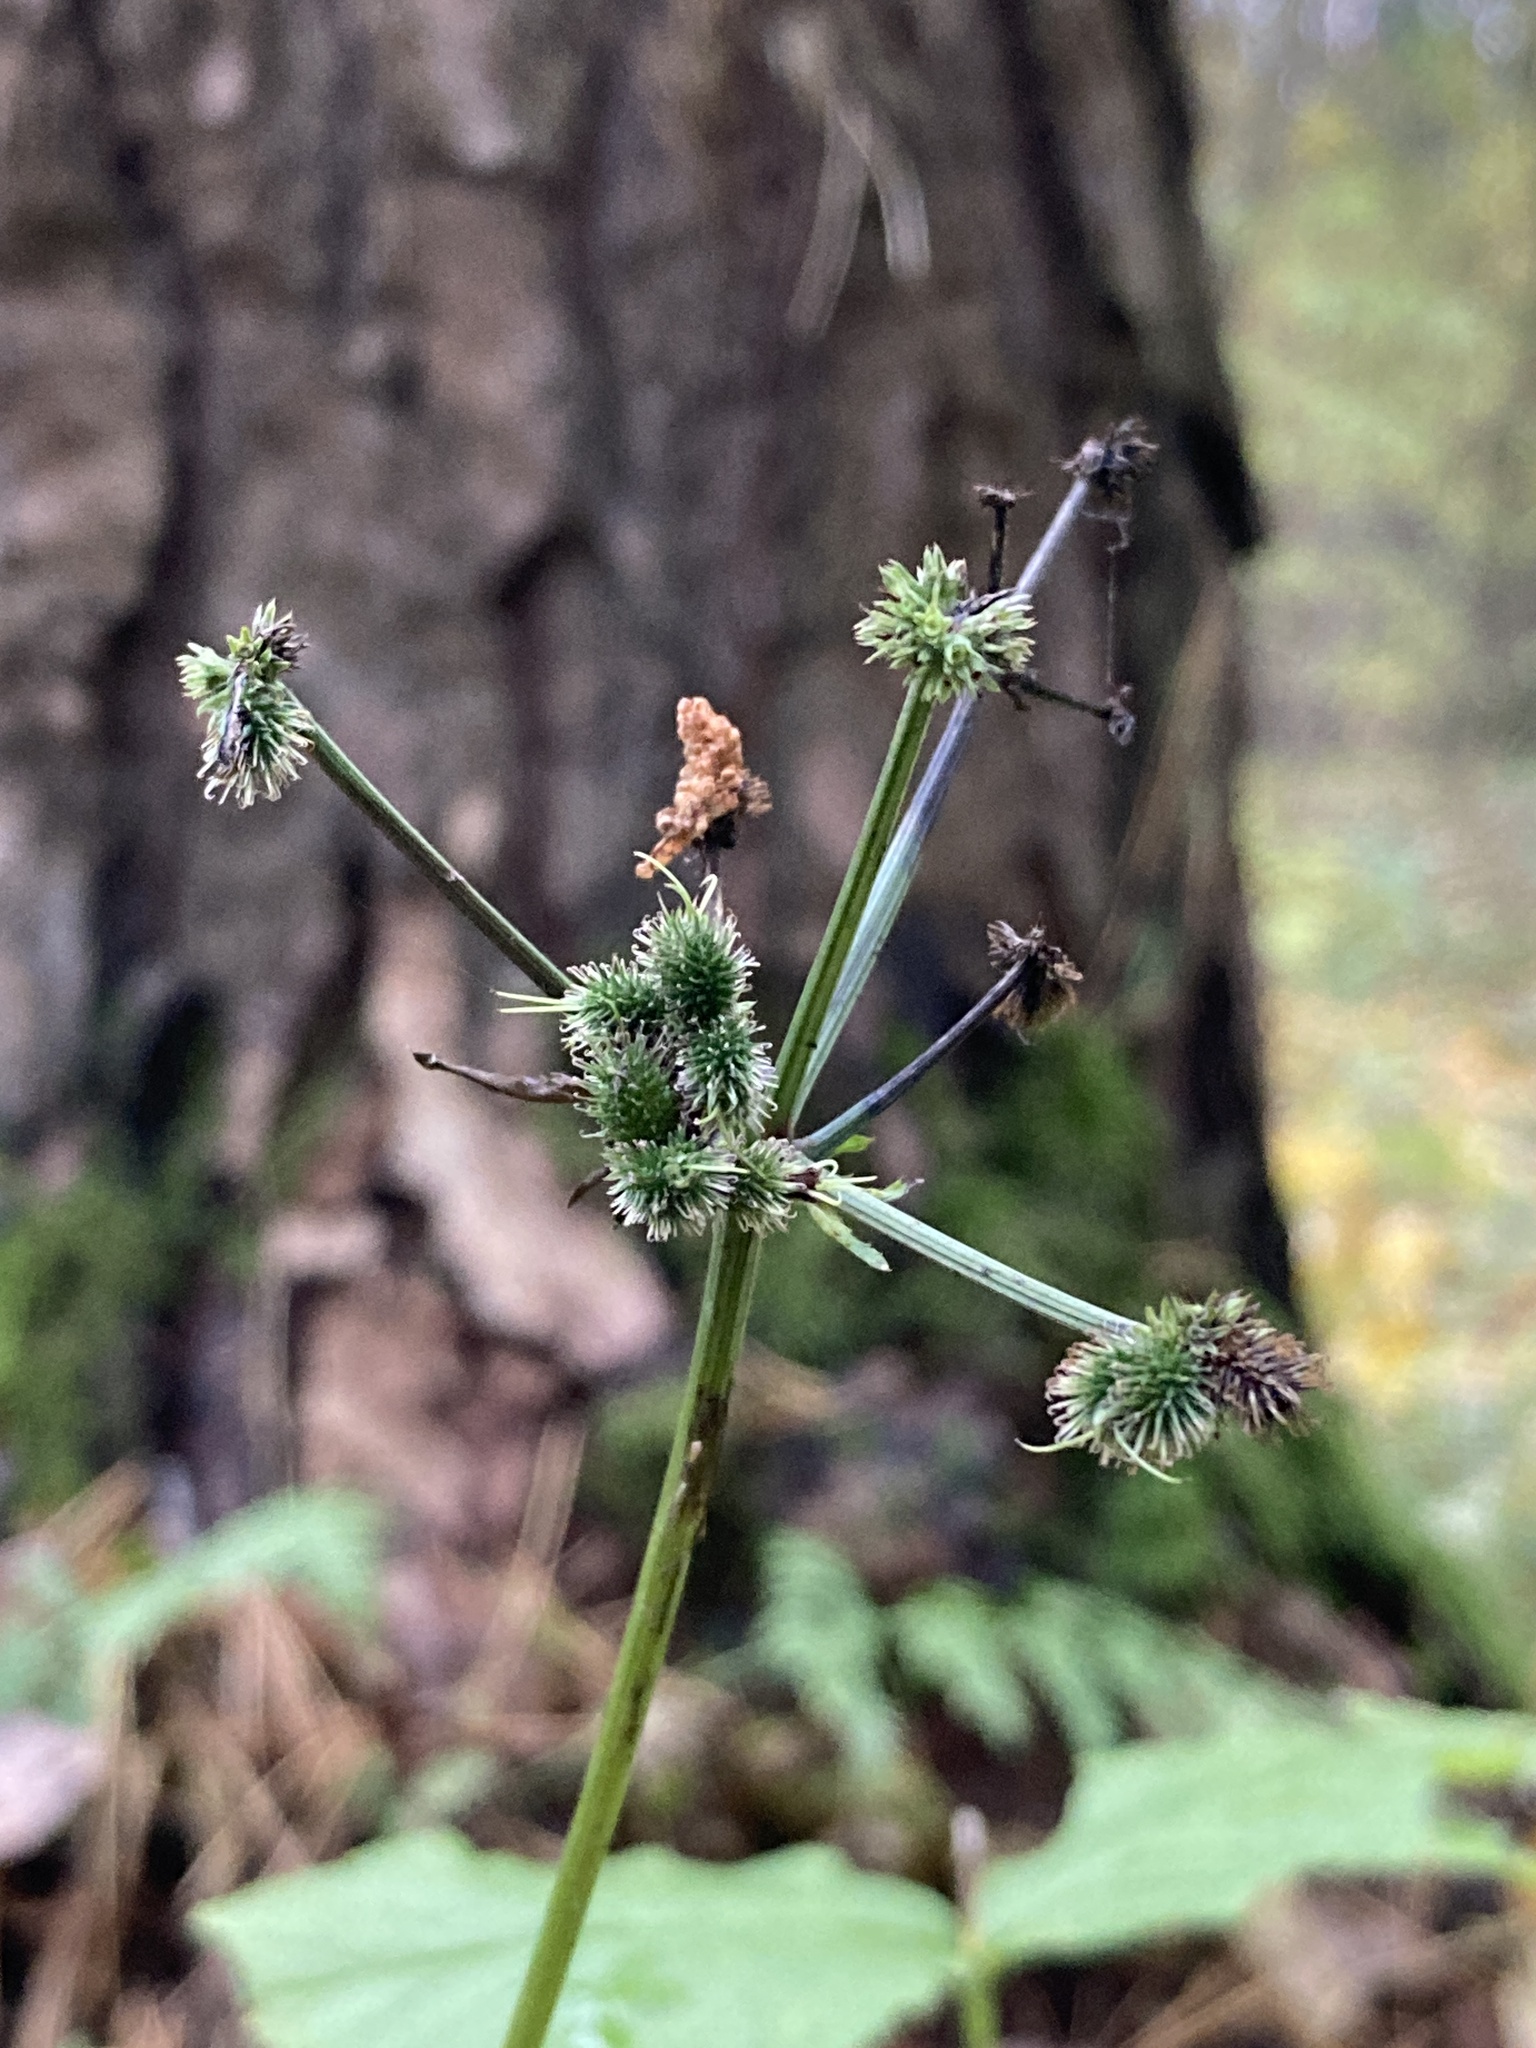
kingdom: Plantae
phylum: Tracheophyta
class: Magnoliopsida
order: Apiales
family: Apiaceae
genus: Sanicula
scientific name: Sanicula europaea
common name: Sanicle
